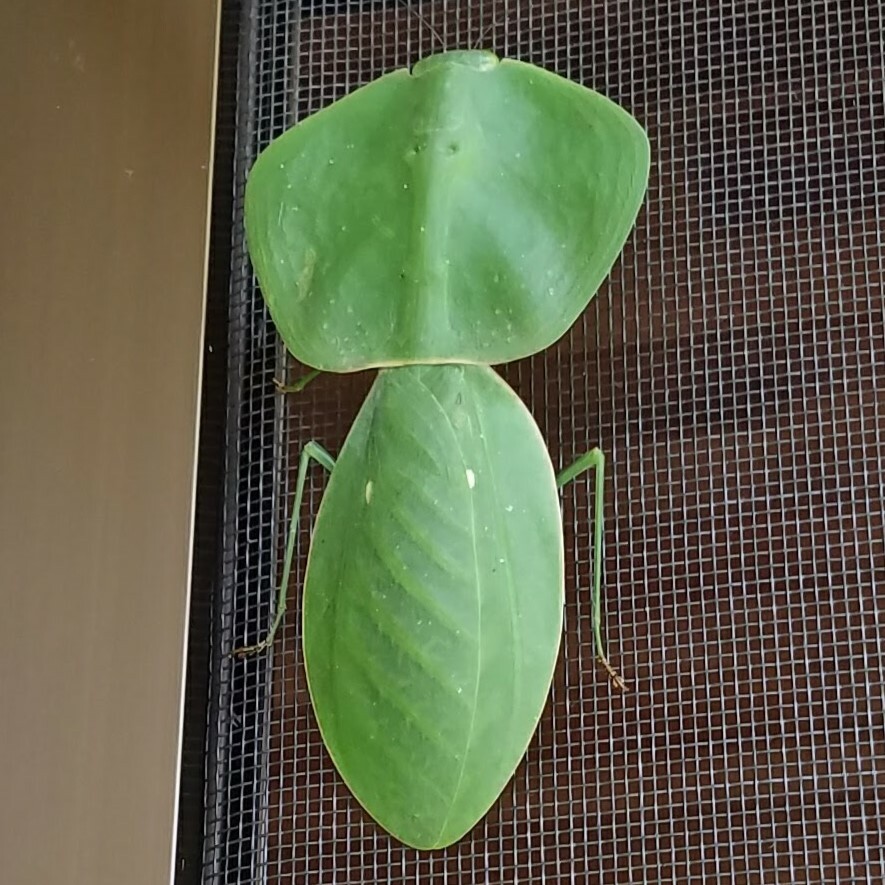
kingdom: Animalia
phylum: Arthropoda
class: Insecta
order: Mantodea
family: Mantidae
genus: Choeradodis
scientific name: Choeradodis rhombicollis
